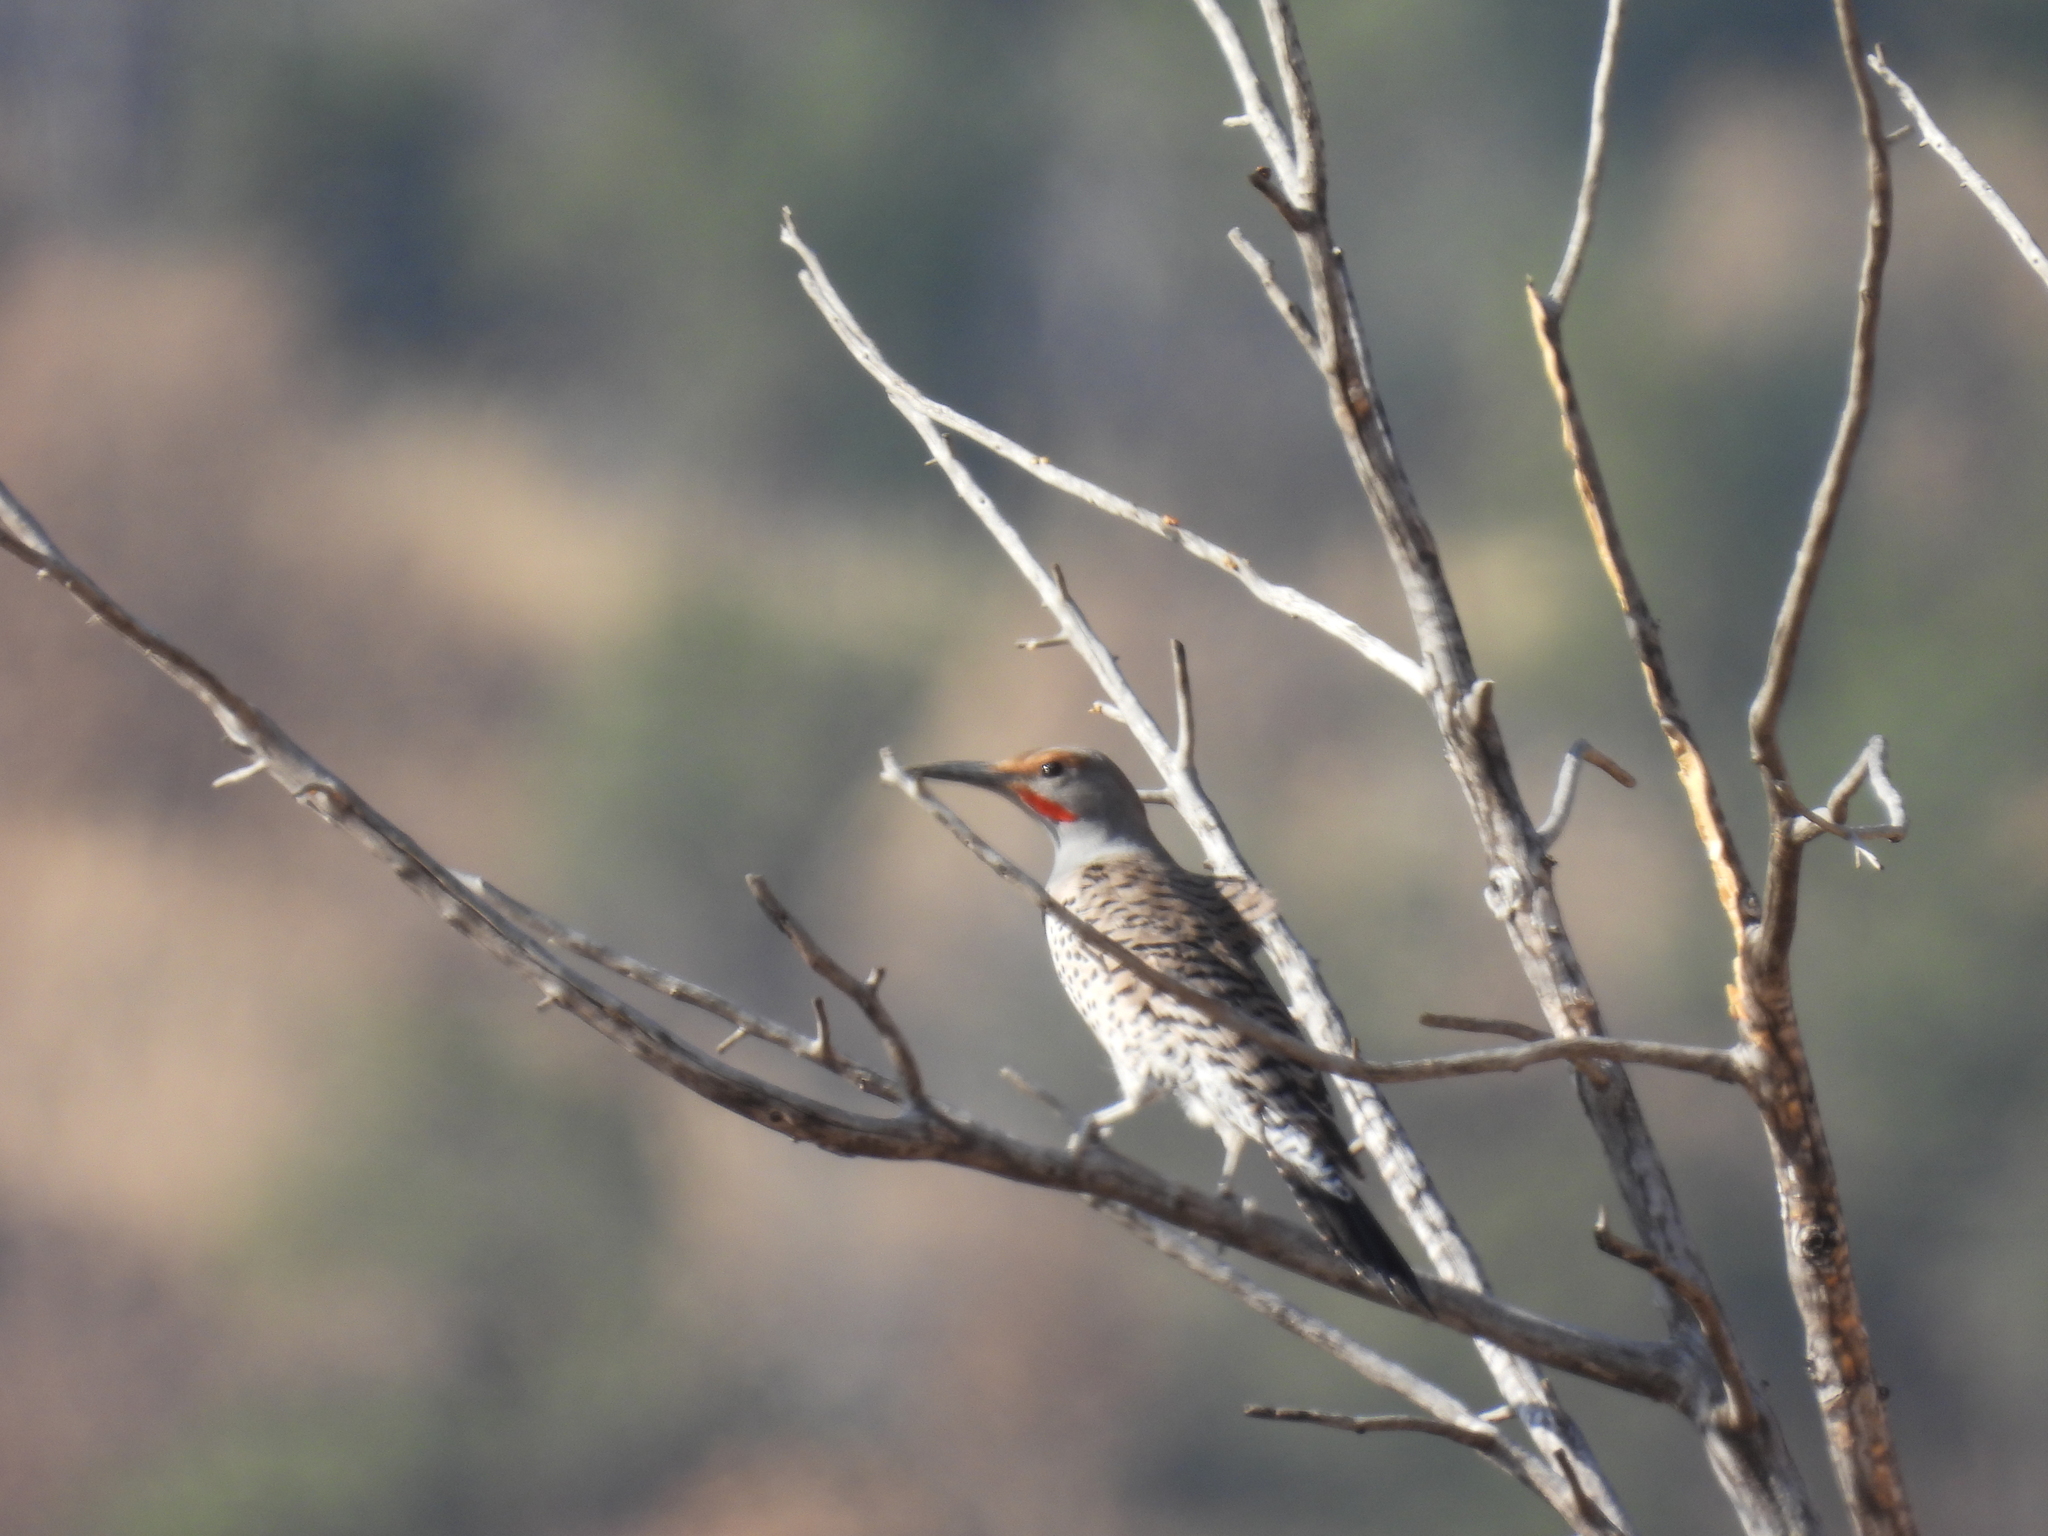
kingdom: Animalia
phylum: Chordata
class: Aves
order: Piciformes
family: Picidae
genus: Colaptes
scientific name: Colaptes auratus
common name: Northern flicker
